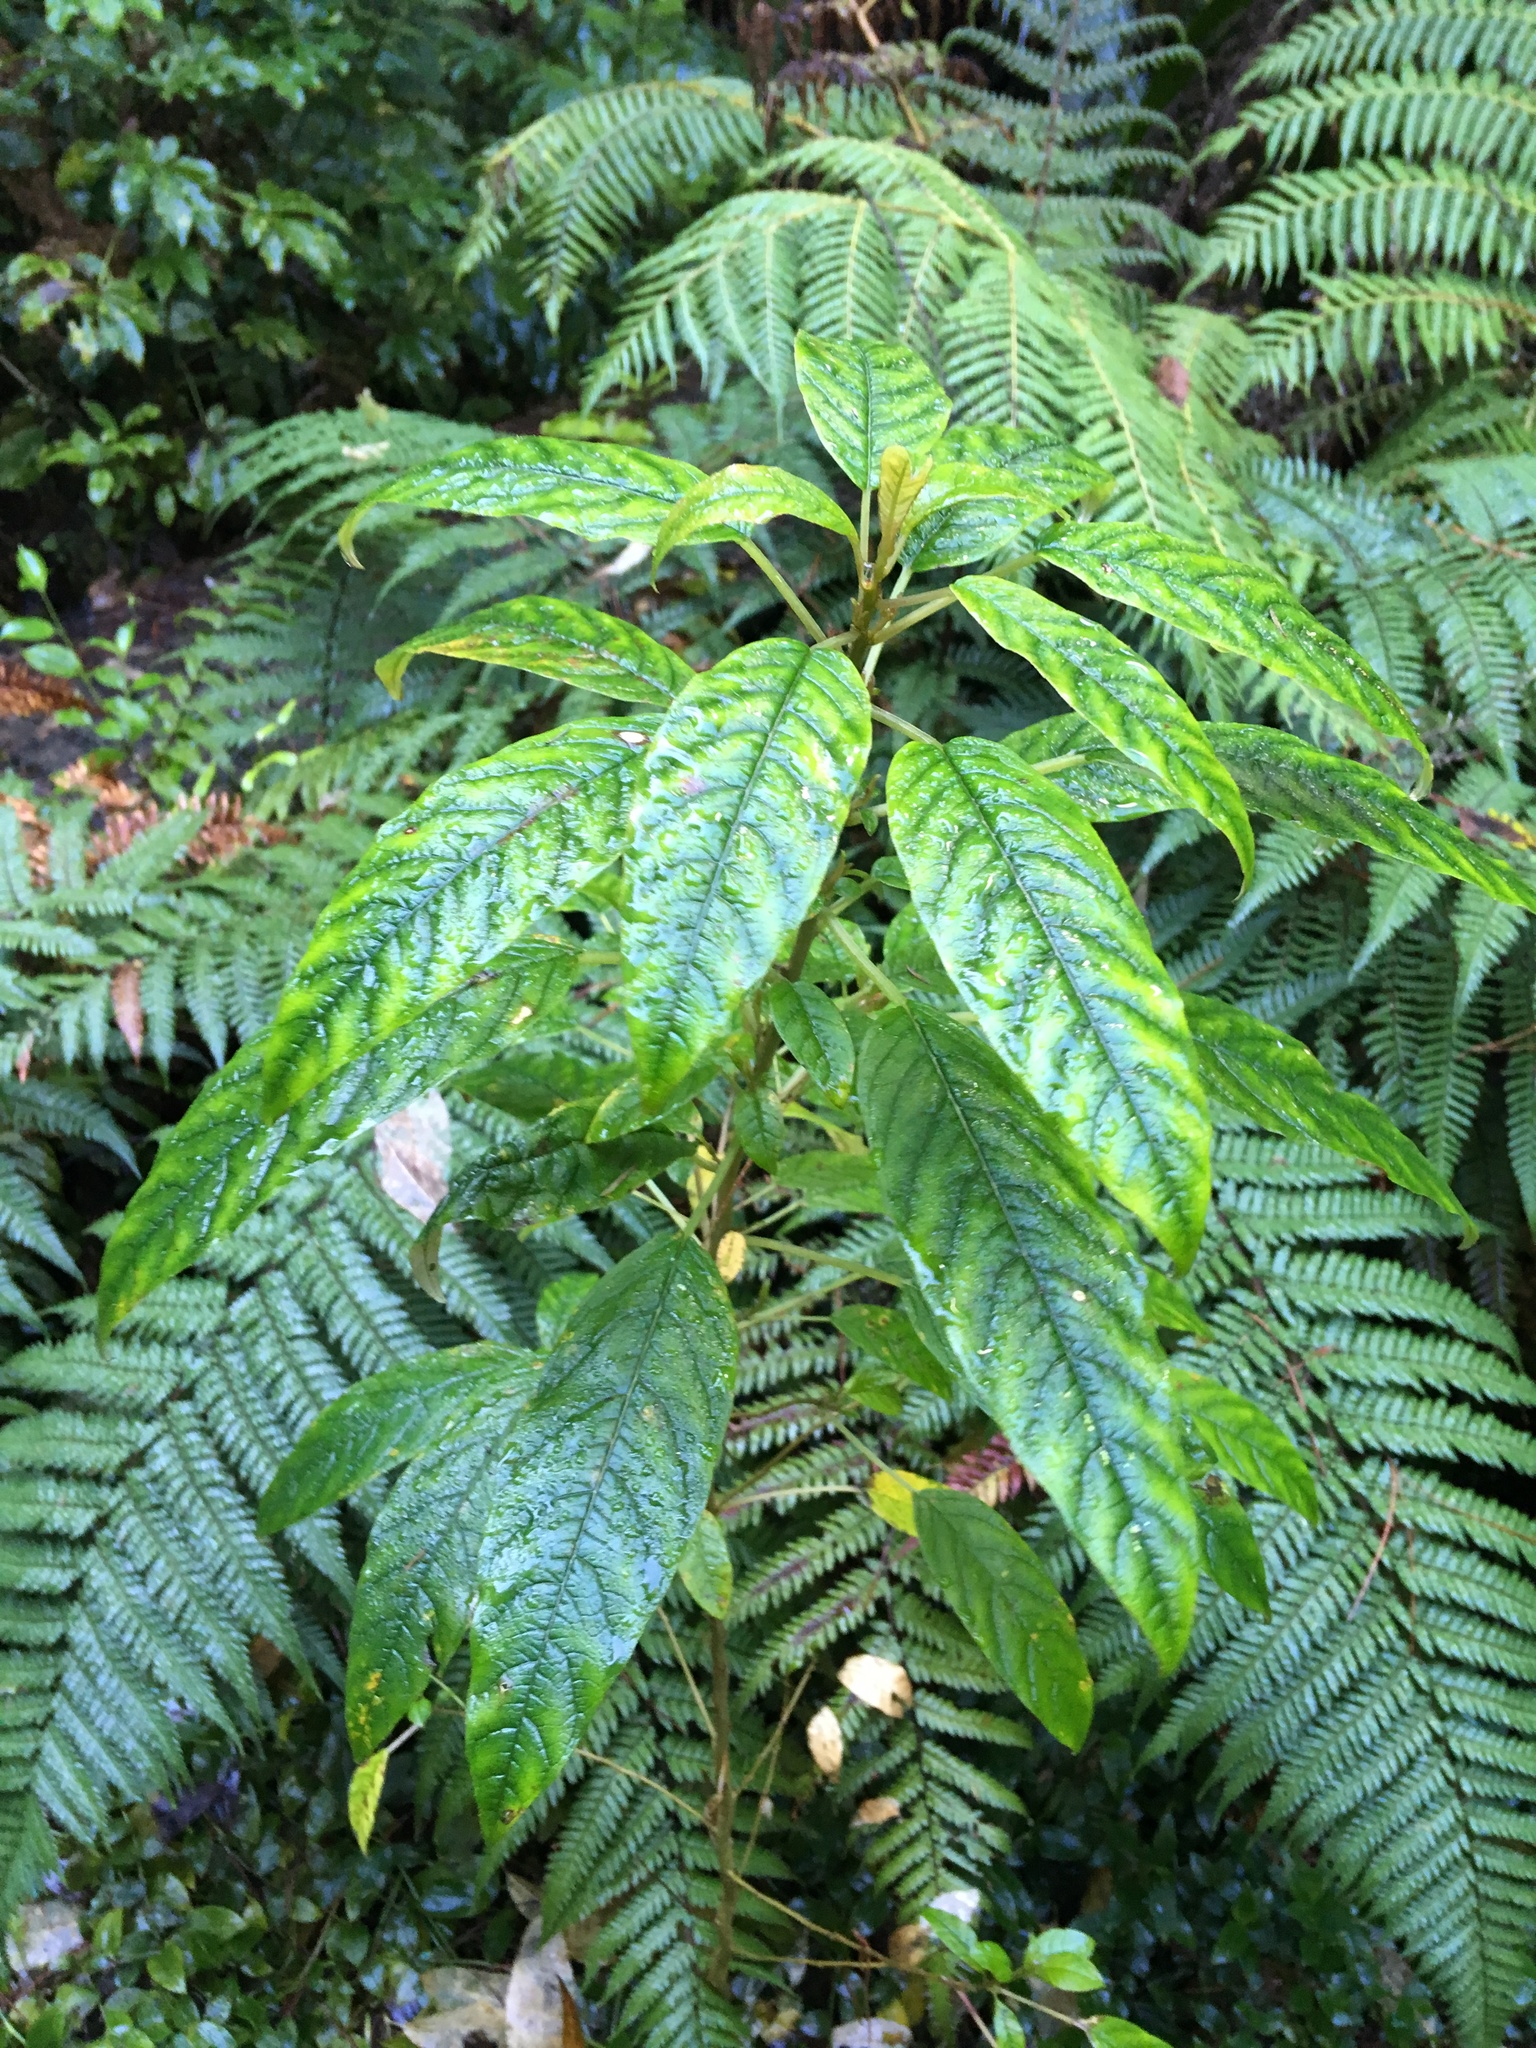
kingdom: Plantae
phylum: Tracheophyta
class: Magnoliopsida
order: Myrtales
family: Onagraceae
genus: Fuchsia
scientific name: Fuchsia excorticata
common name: Tree fuchsia
